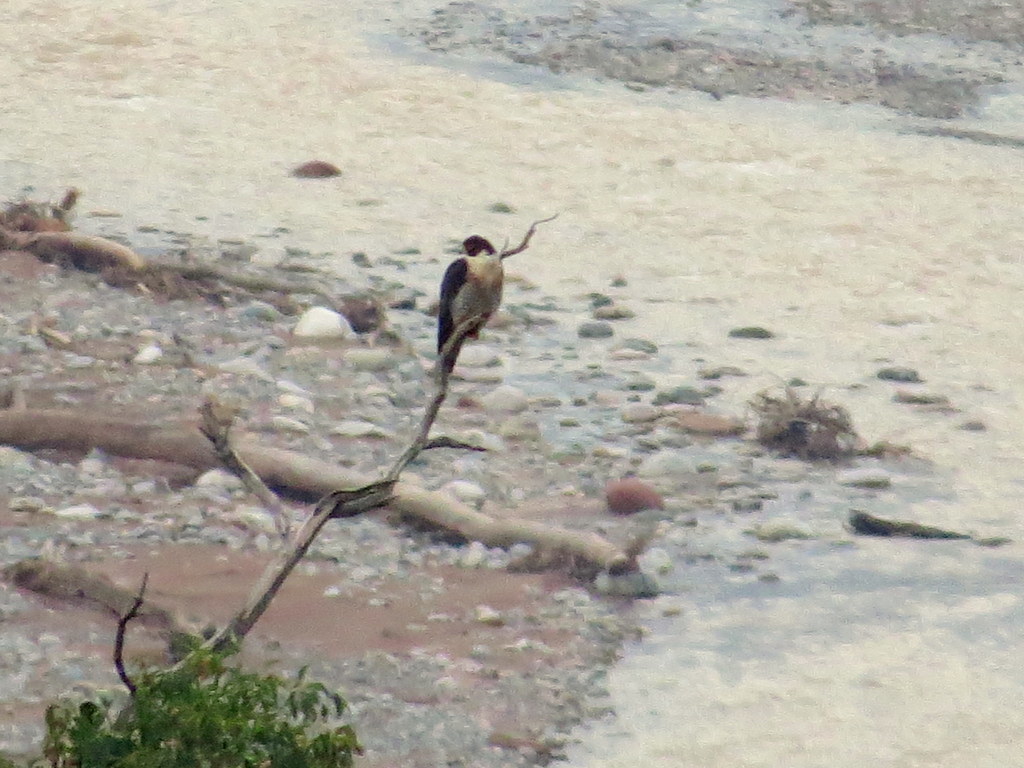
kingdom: Animalia
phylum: Chordata
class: Aves
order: Falconiformes
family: Falconidae
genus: Falco
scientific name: Falco peregrinus
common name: Peregrine falcon
